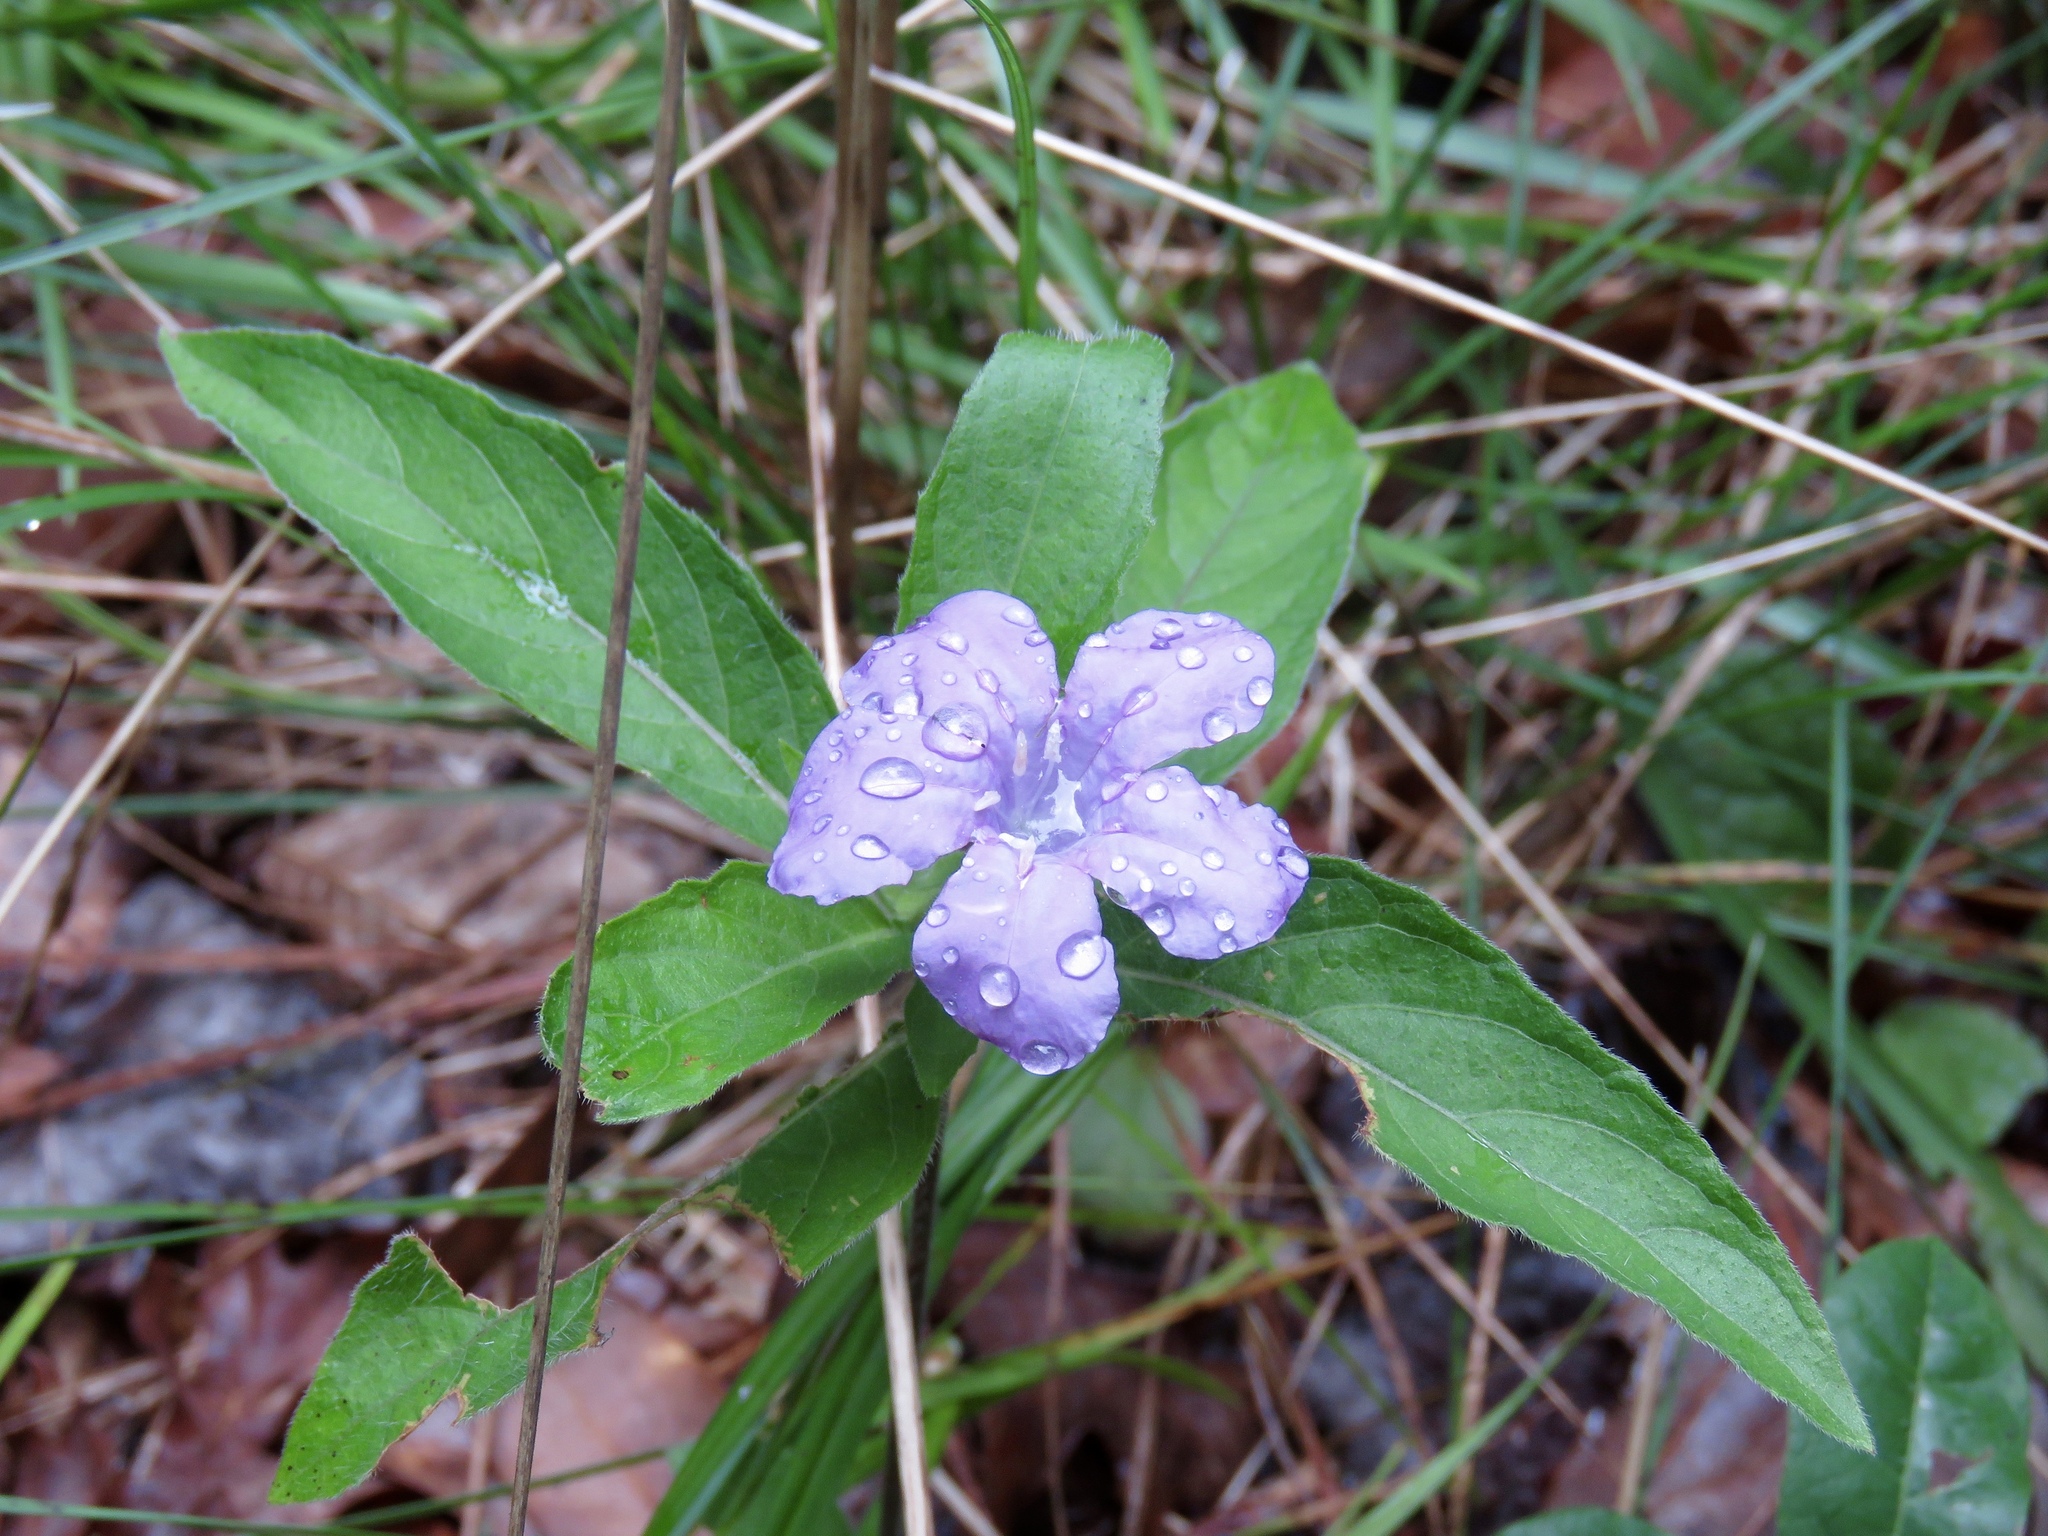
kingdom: Plantae
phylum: Tracheophyta
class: Magnoliopsida
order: Lamiales
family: Acanthaceae
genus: Ruellia
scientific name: Ruellia caroliniensis
